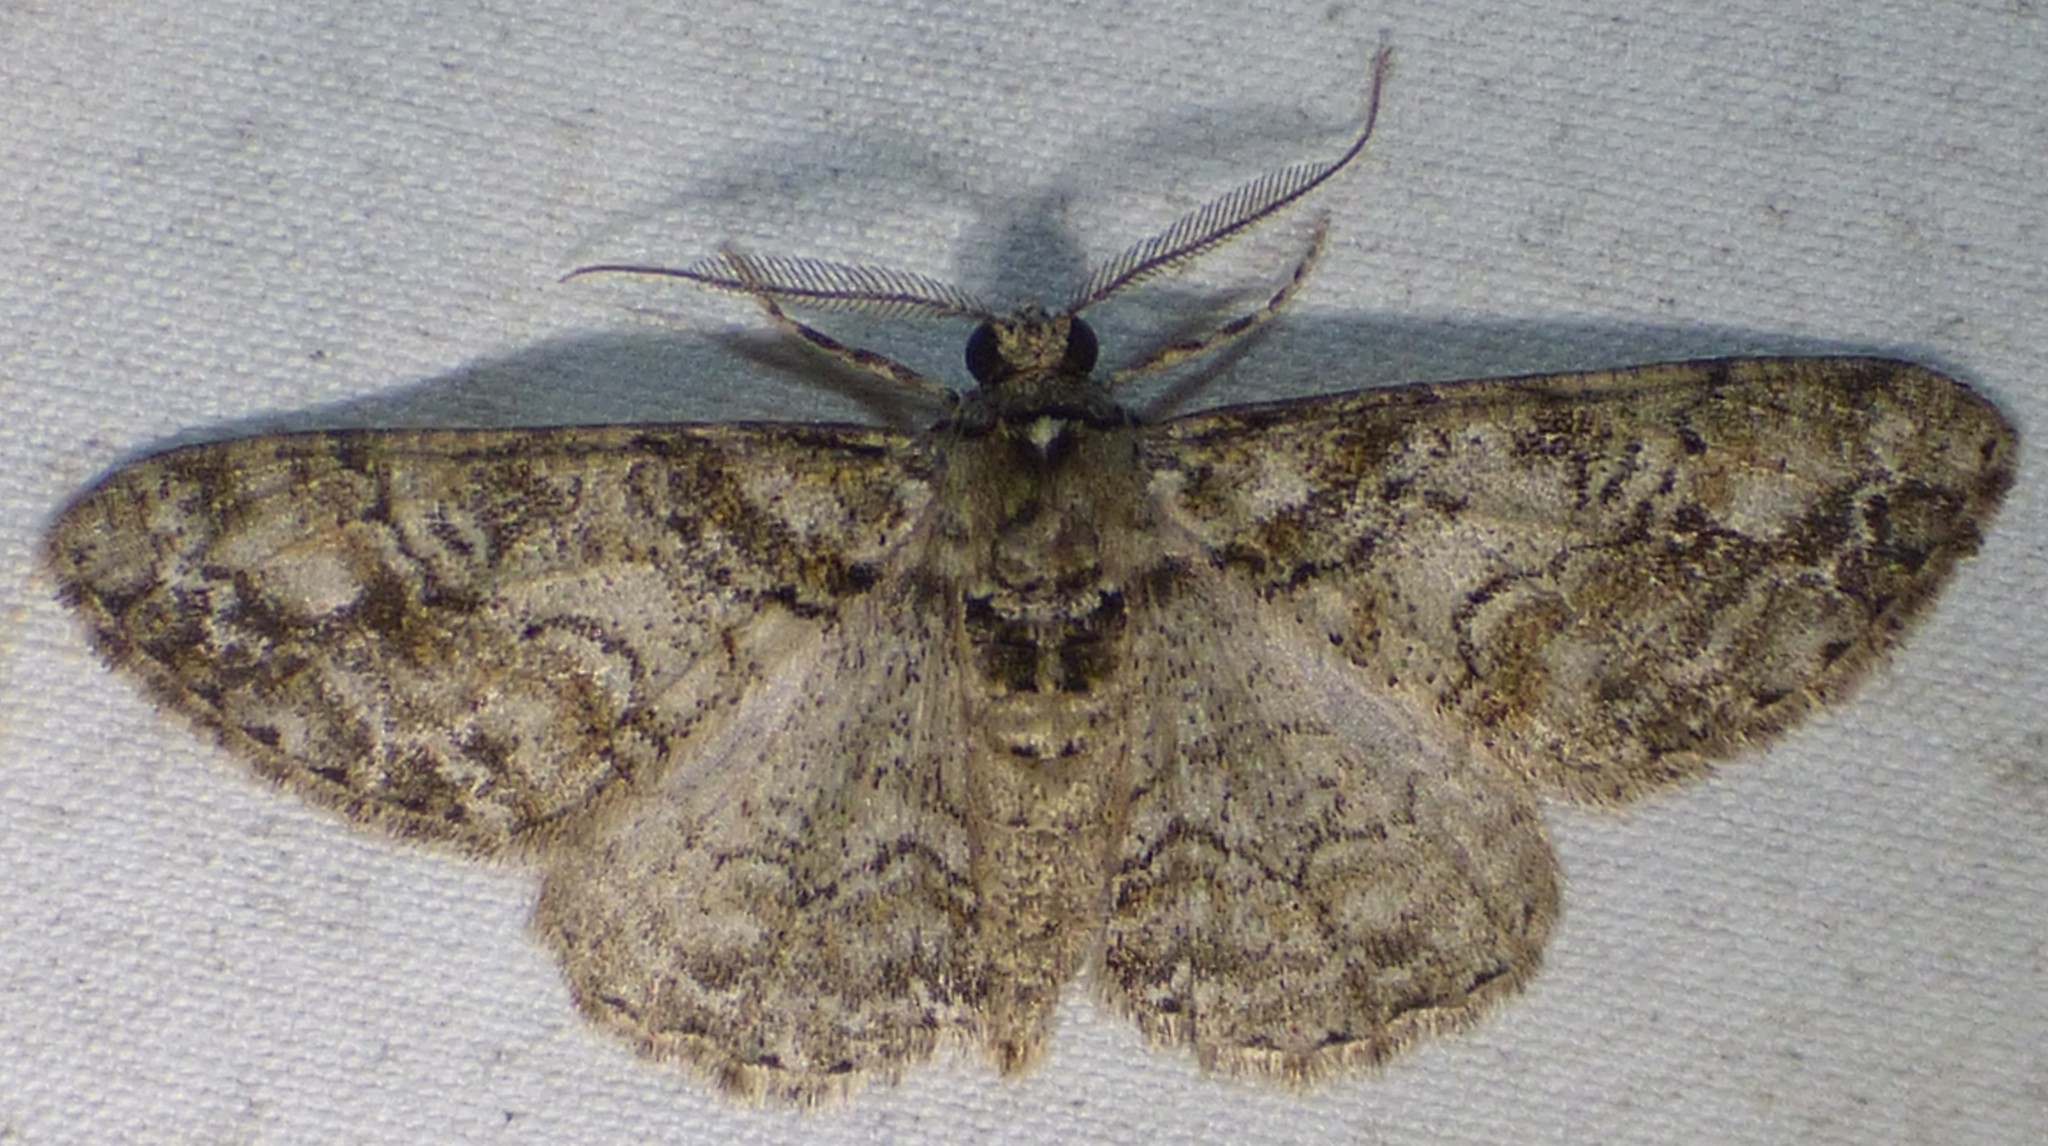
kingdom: Animalia
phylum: Arthropoda
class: Insecta
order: Lepidoptera
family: Geometridae
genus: Cleora
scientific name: Cleora sublunaria
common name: Double-lined gray
